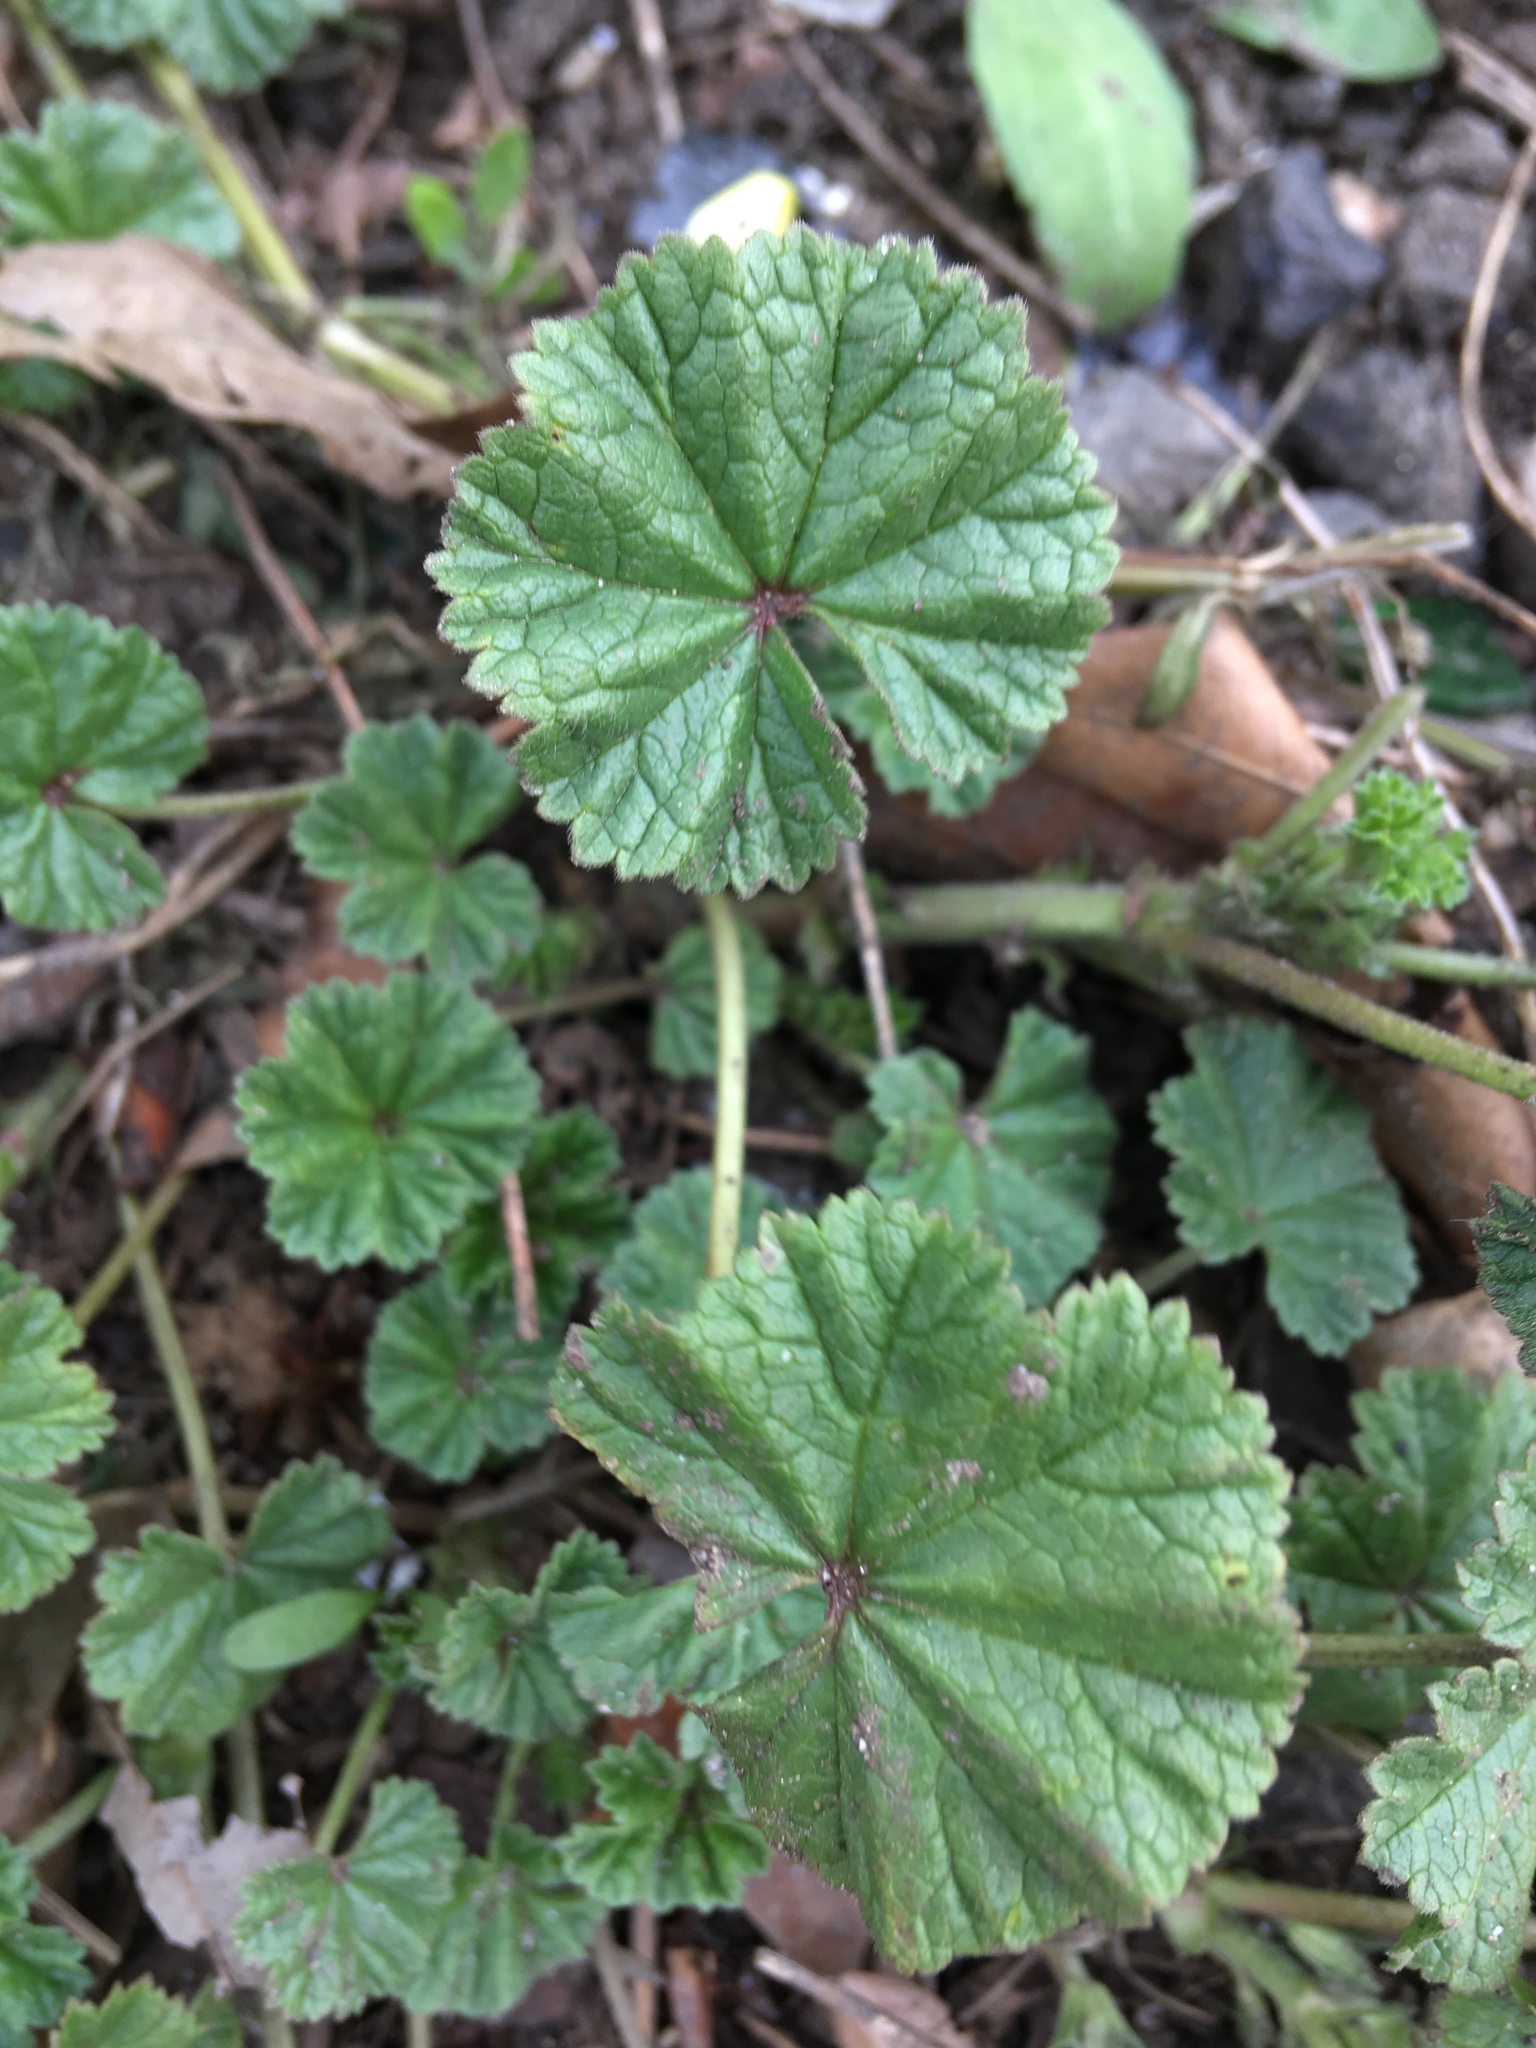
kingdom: Plantae
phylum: Tracheophyta
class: Magnoliopsida
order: Malvales
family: Malvaceae
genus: Malva
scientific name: Malva neglecta
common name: Common mallow
